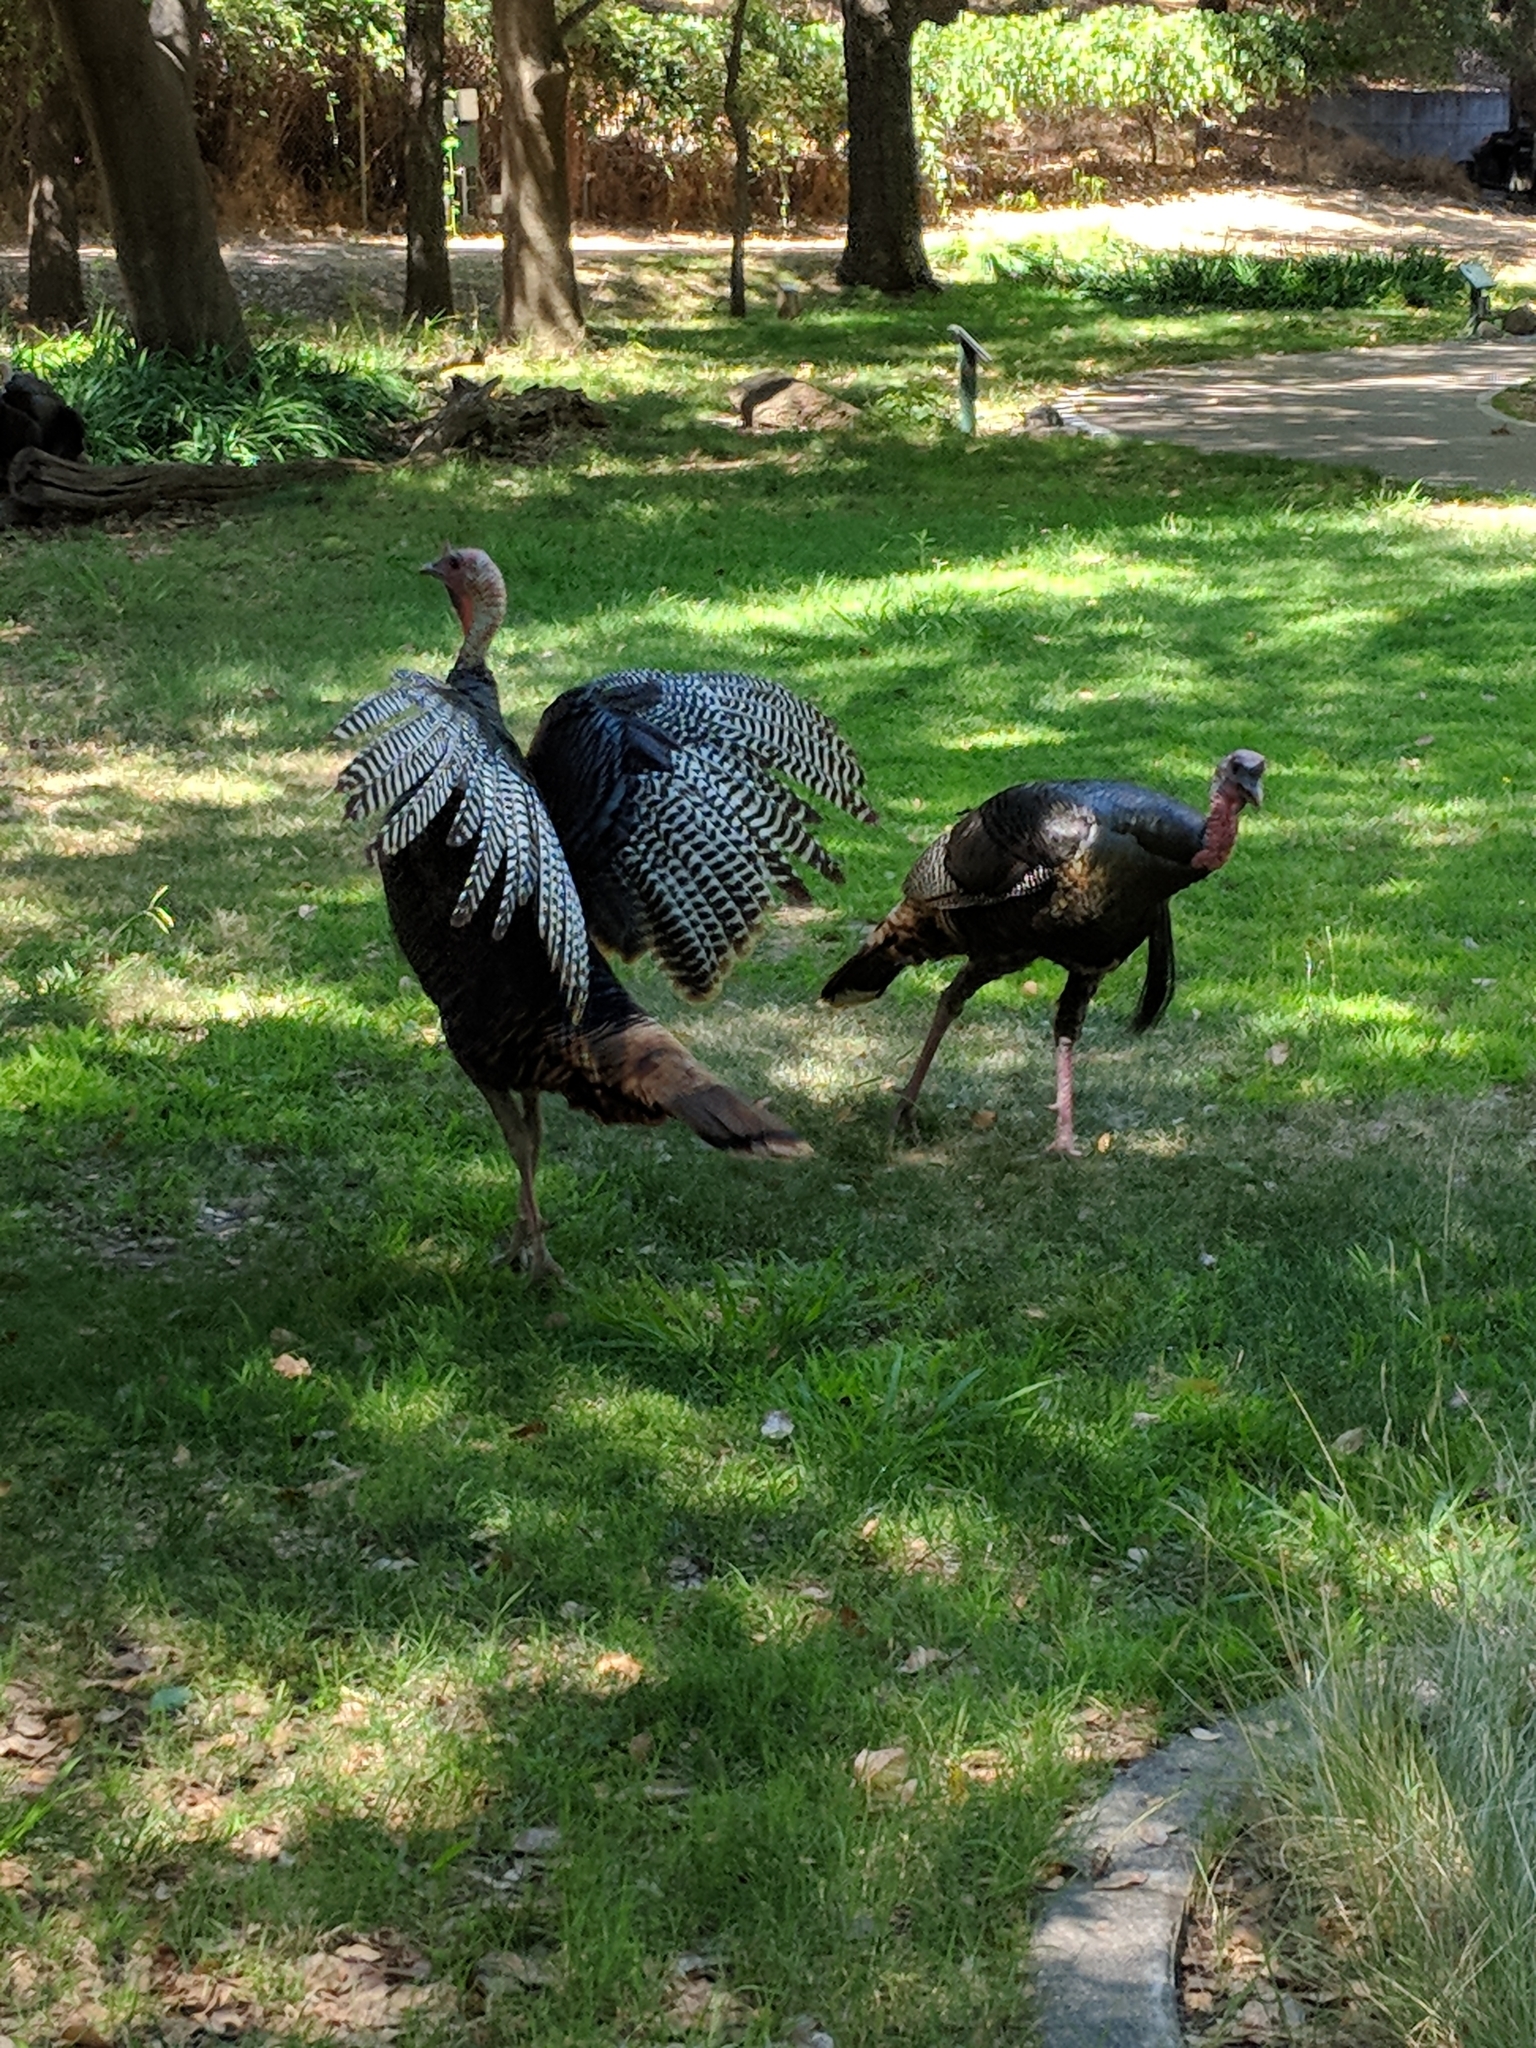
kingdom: Animalia
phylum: Chordata
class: Aves
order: Galliformes
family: Phasianidae
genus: Meleagris
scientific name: Meleagris gallopavo
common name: Wild turkey
